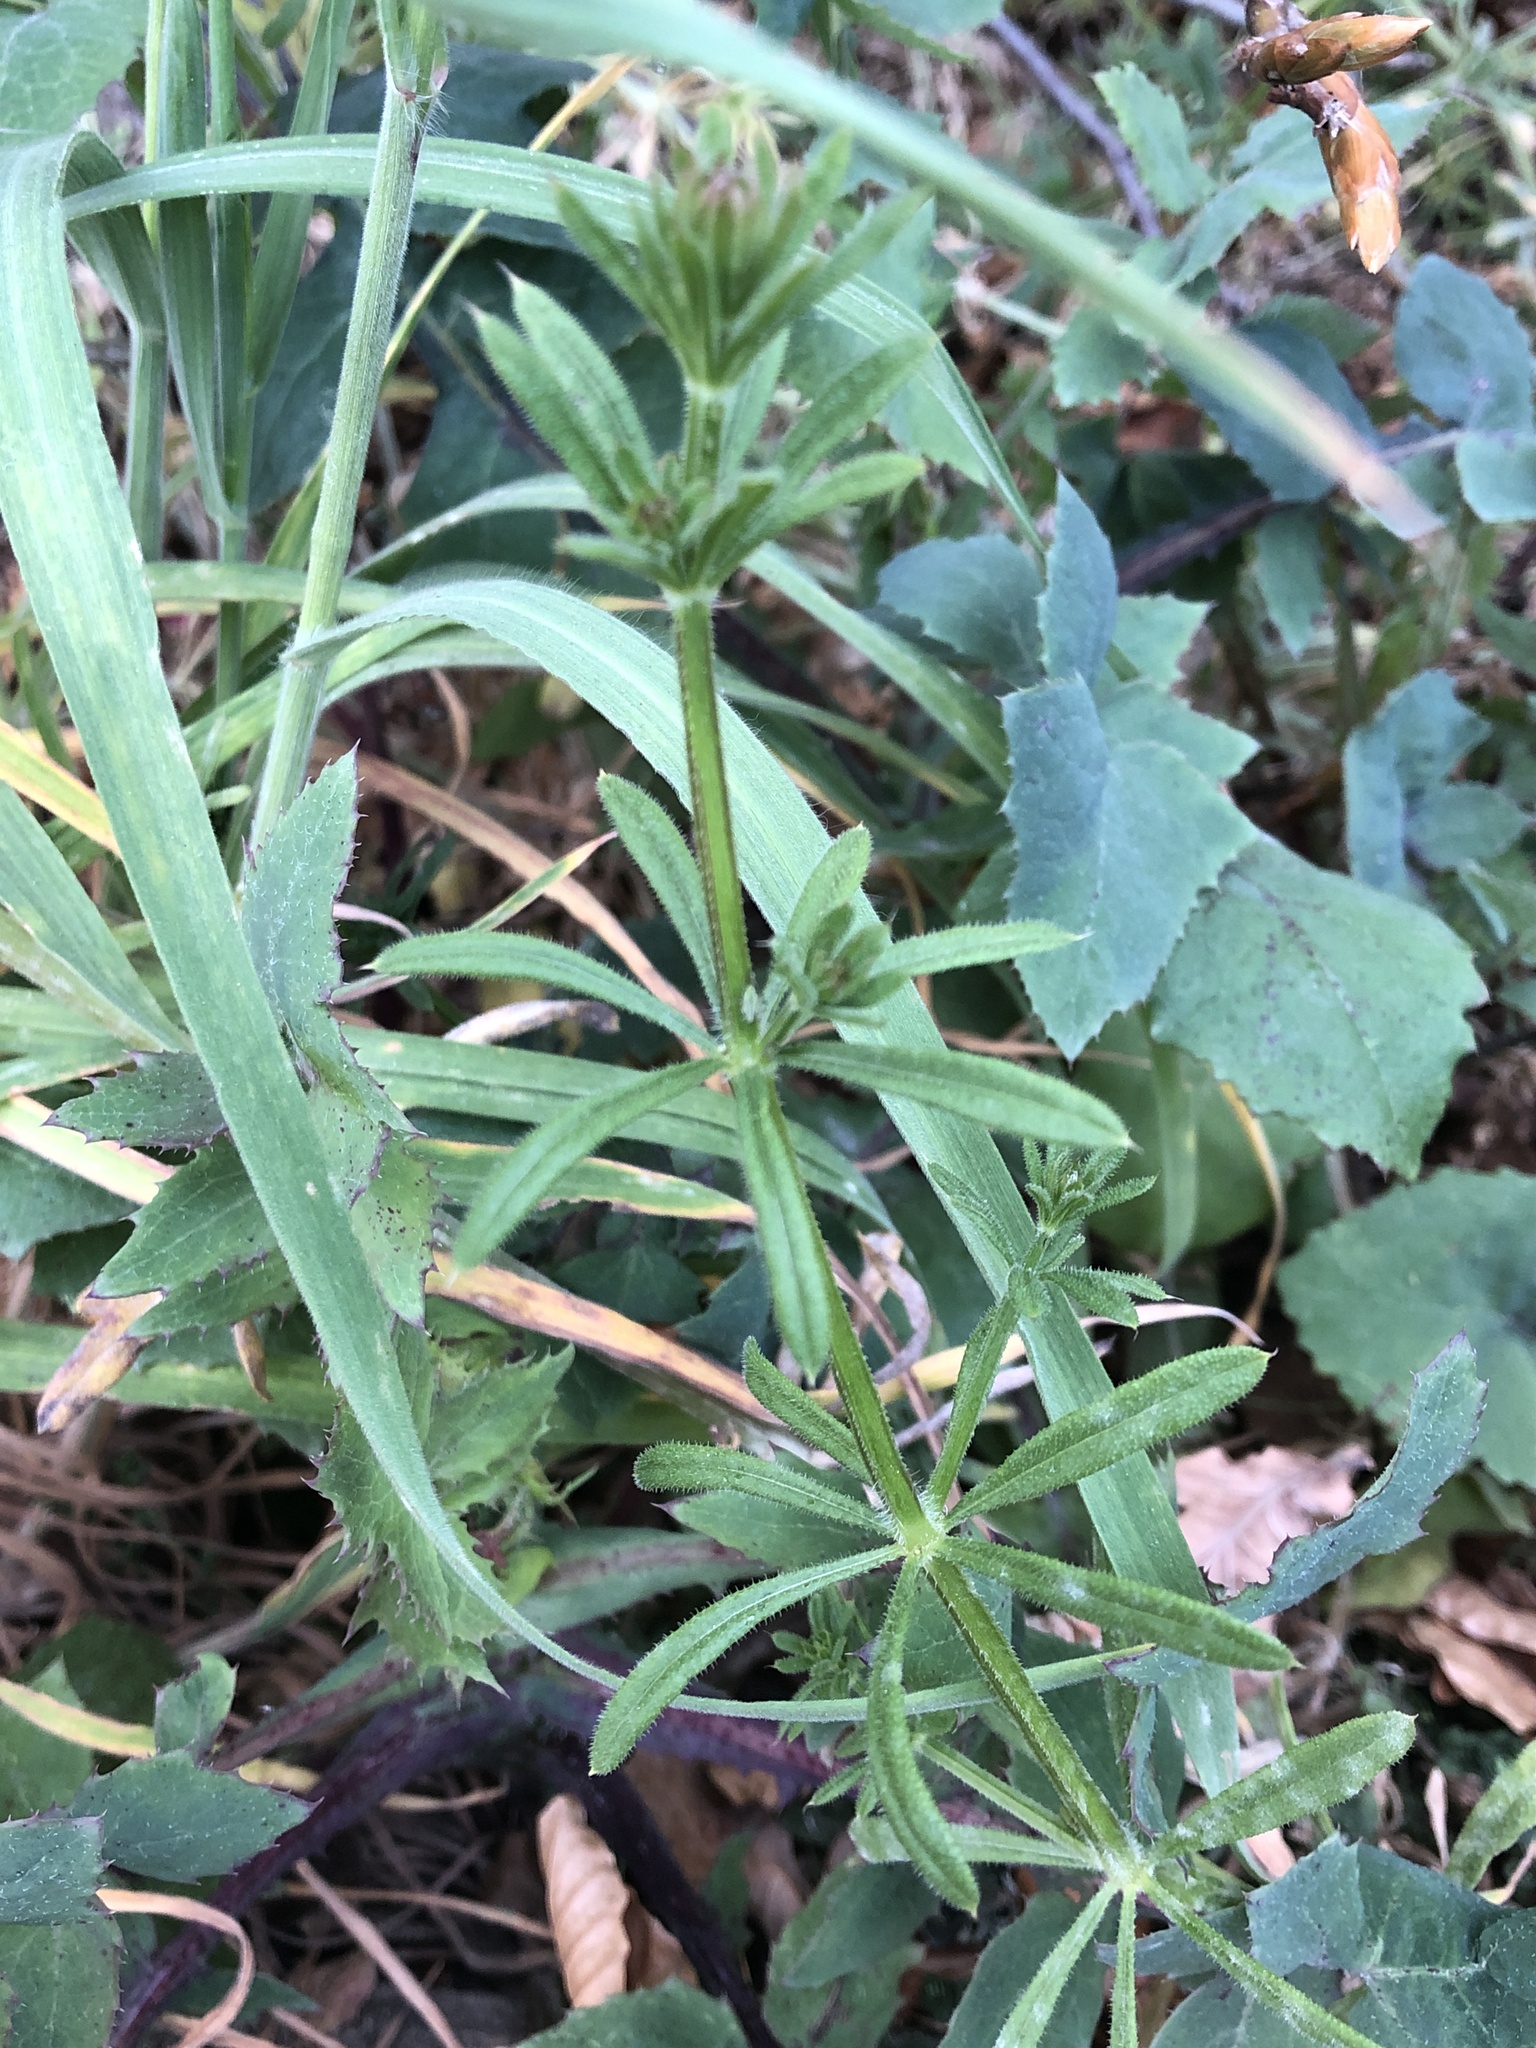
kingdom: Plantae
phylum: Tracheophyta
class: Magnoliopsida
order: Gentianales
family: Rubiaceae
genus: Galium
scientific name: Galium aparine
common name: Cleavers
